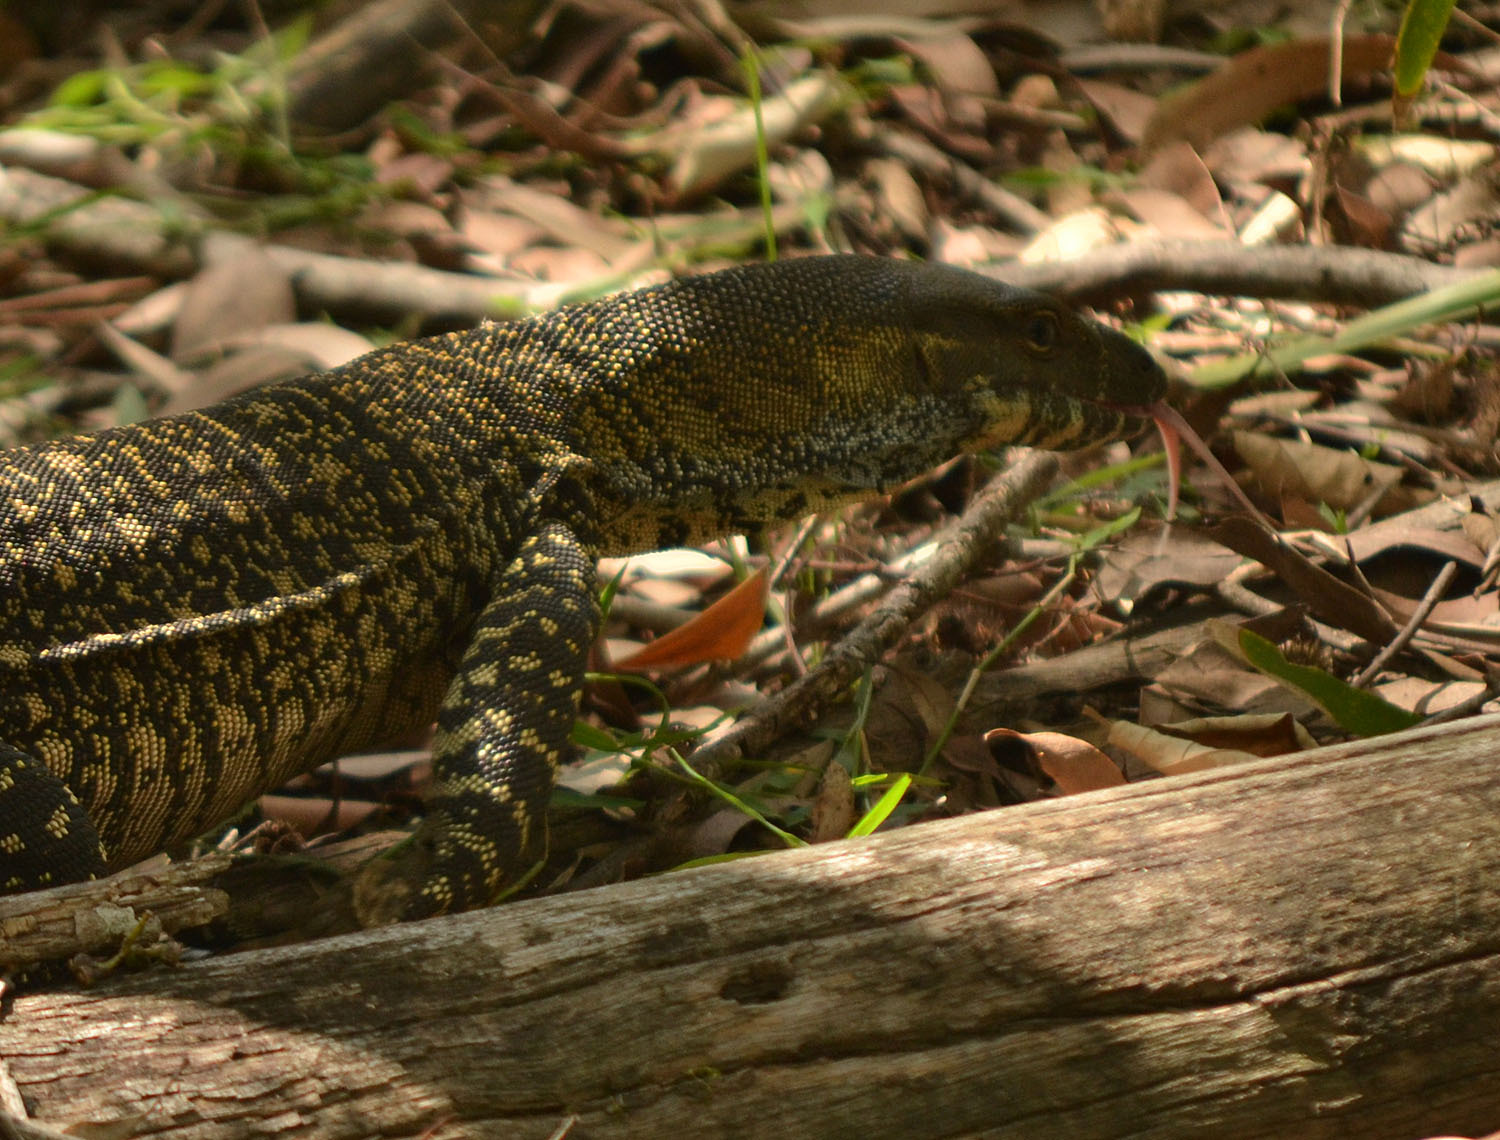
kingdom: Animalia
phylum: Chordata
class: Squamata
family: Varanidae
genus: Varanus
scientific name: Varanus varius
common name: Lace monitor
